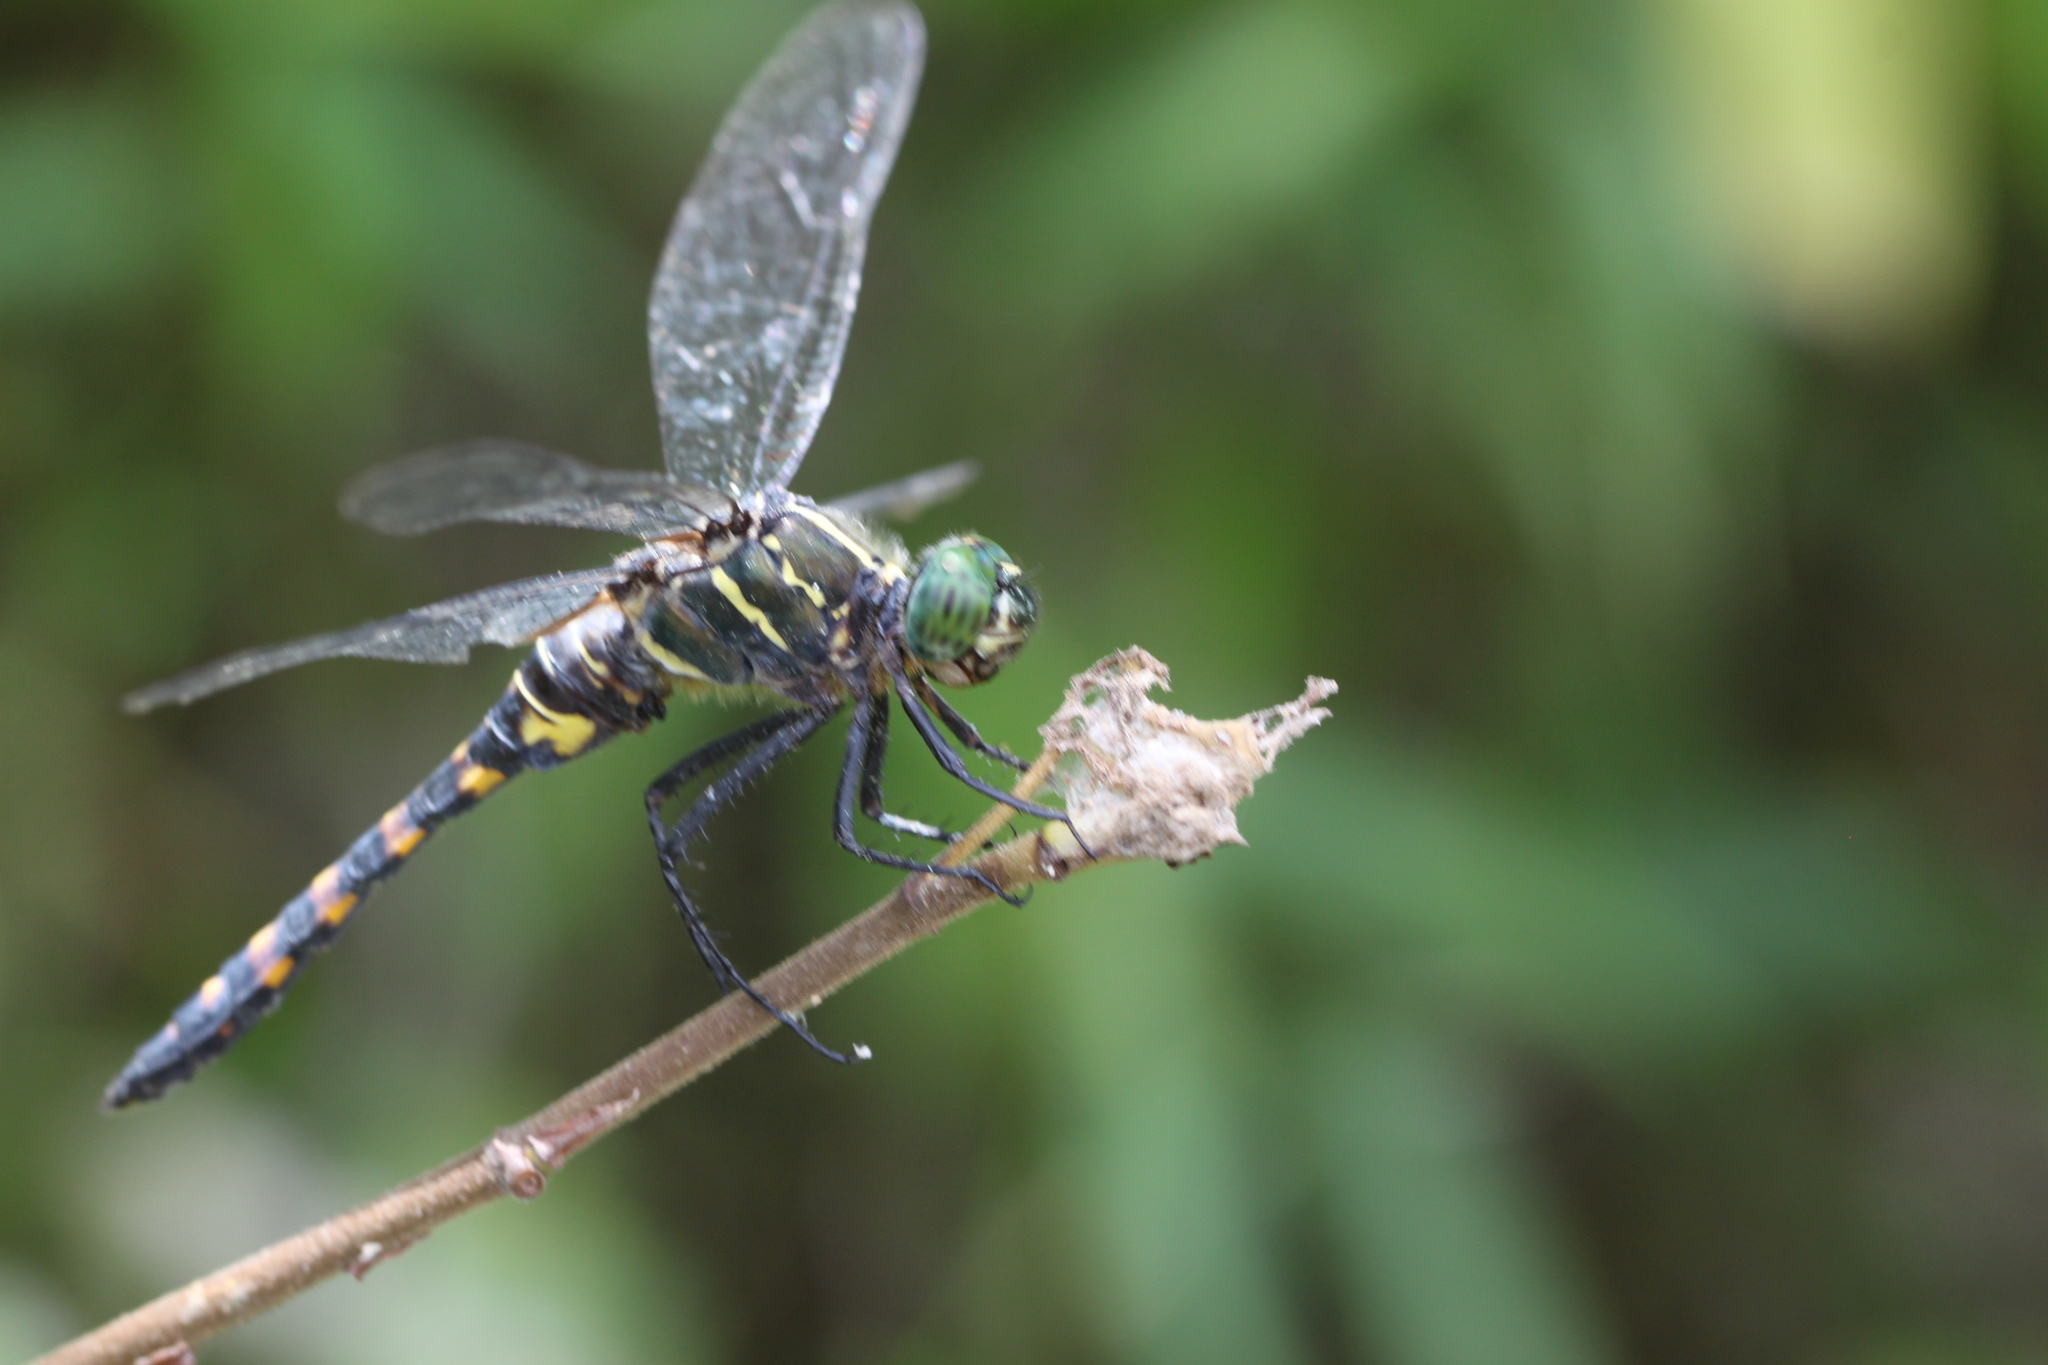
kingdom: Animalia
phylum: Arthropoda
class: Insecta
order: Odonata
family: Libellulidae
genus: Onychothemis
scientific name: Onychothemis testacea
